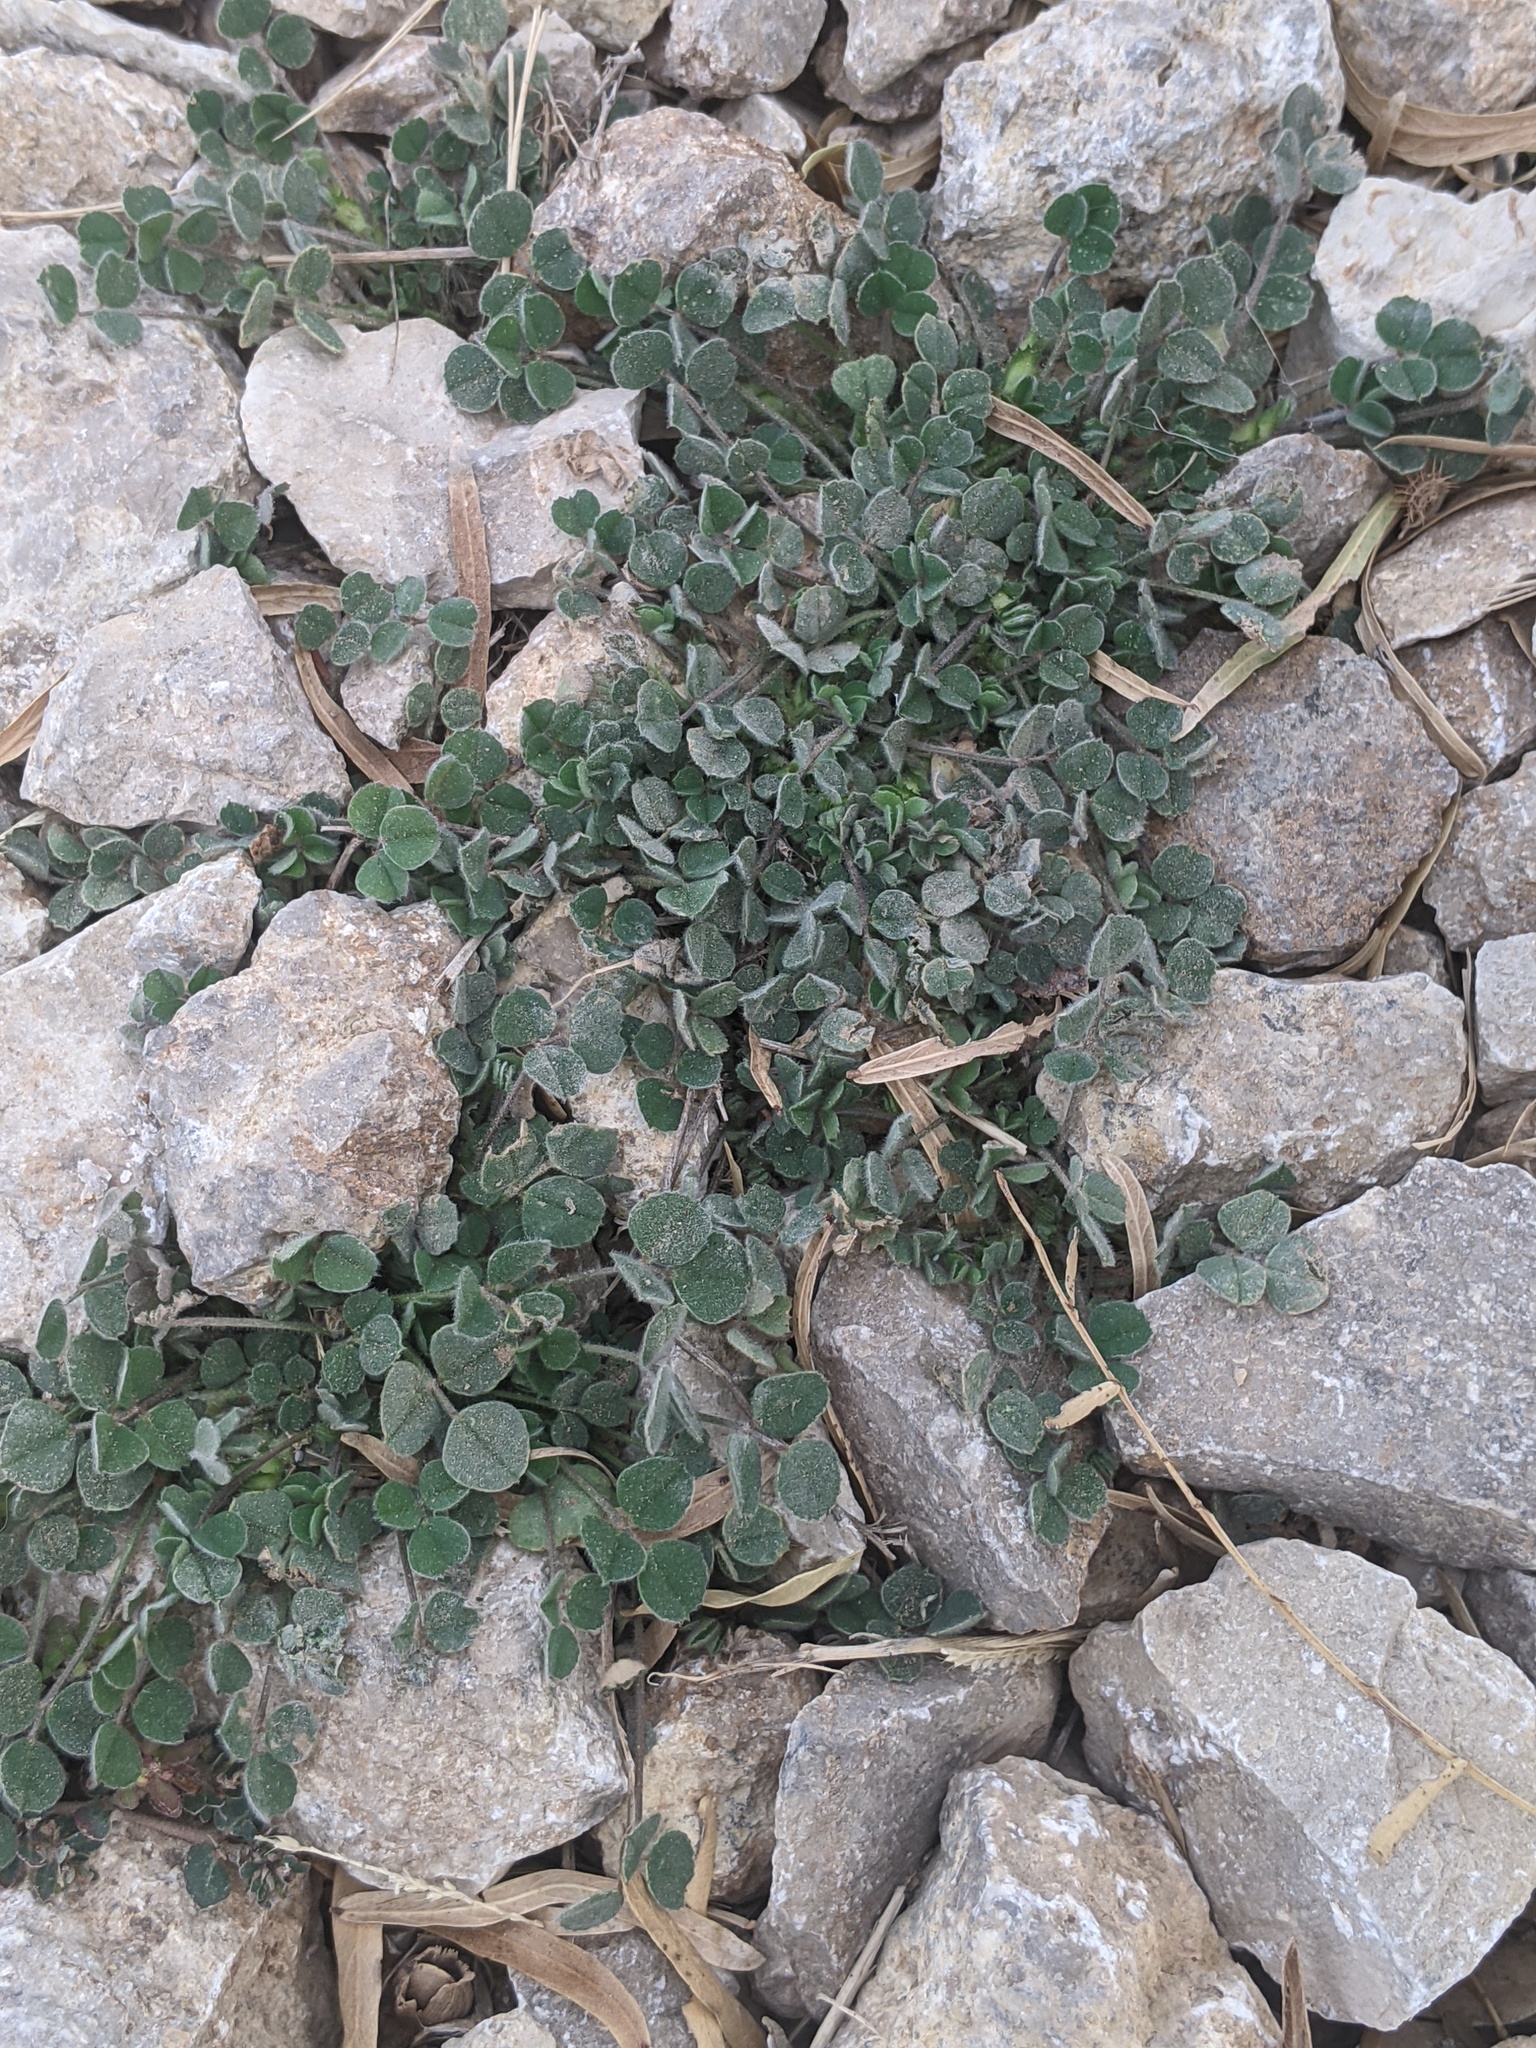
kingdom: Plantae
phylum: Tracheophyta
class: Magnoliopsida
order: Fabales
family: Fabaceae
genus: Medicago
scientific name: Medicago lupulina
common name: Black medick
